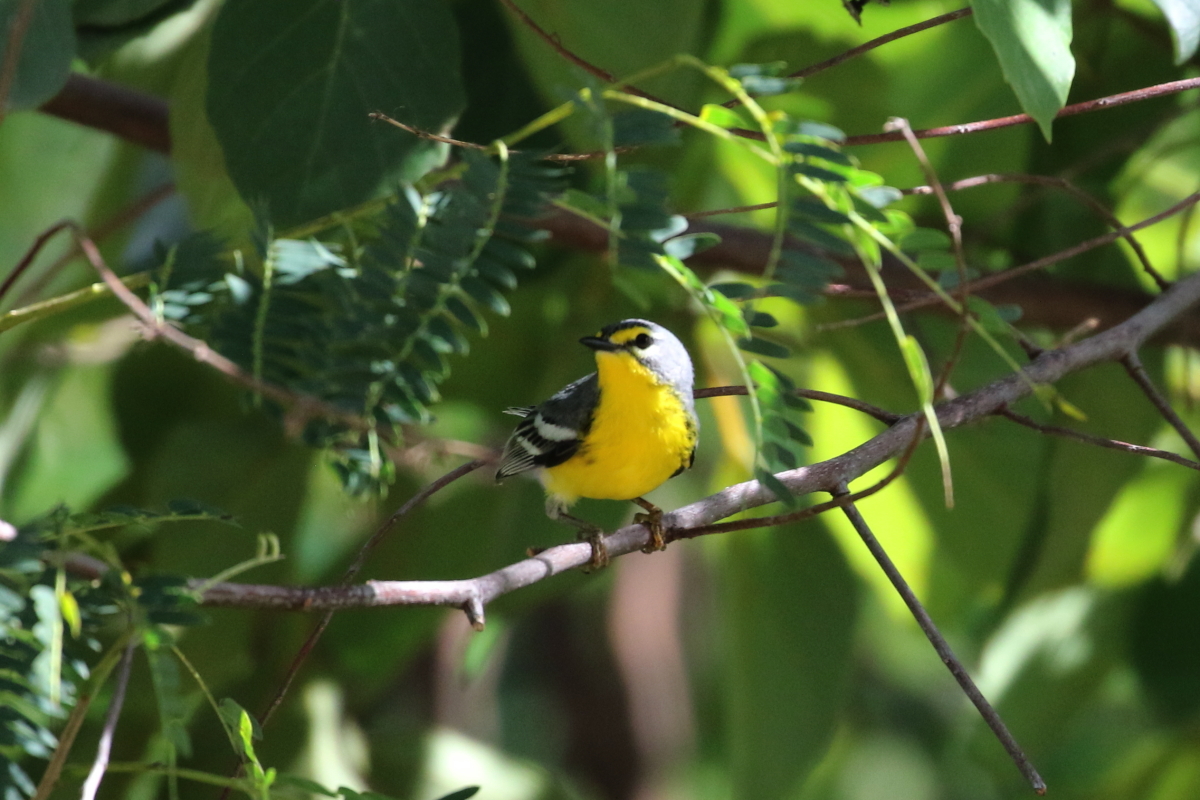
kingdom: Animalia
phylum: Chordata
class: Aves
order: Passeriformes
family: Parulidae
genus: Setophaga
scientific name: Setophaga adelaidae
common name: Adelaide's warbler
